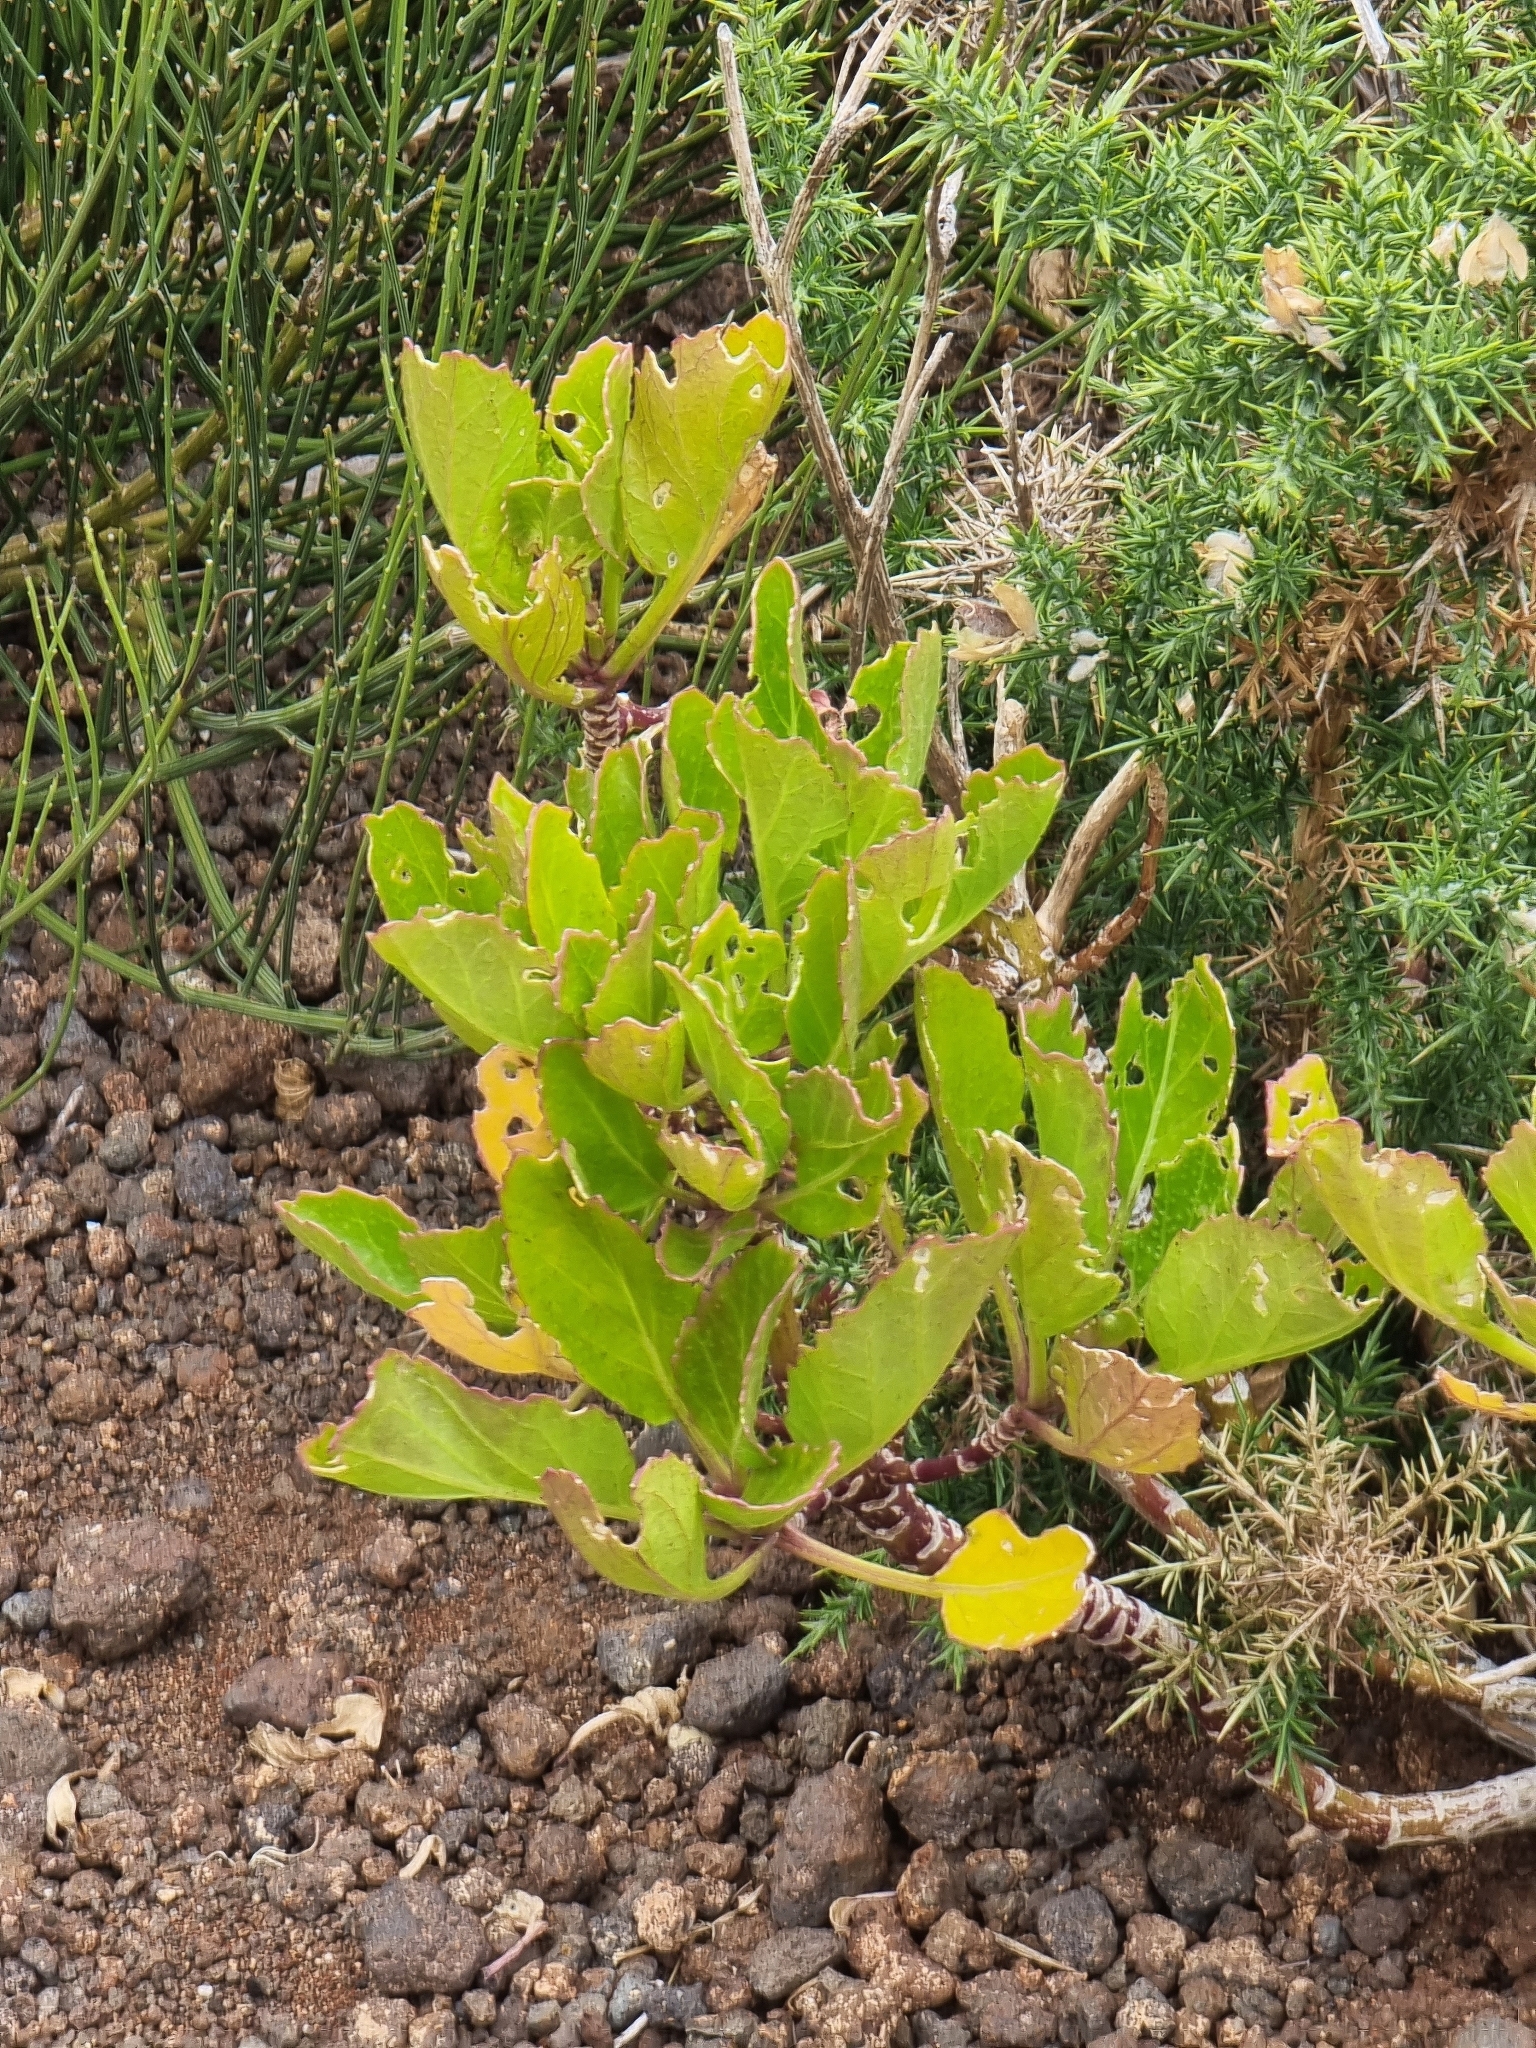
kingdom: Plantae
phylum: Tracheophyta
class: Magnoliopsida
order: Brassicales
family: Brassicaceae
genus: Sinapidendron
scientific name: Sinapidendron rupestre
